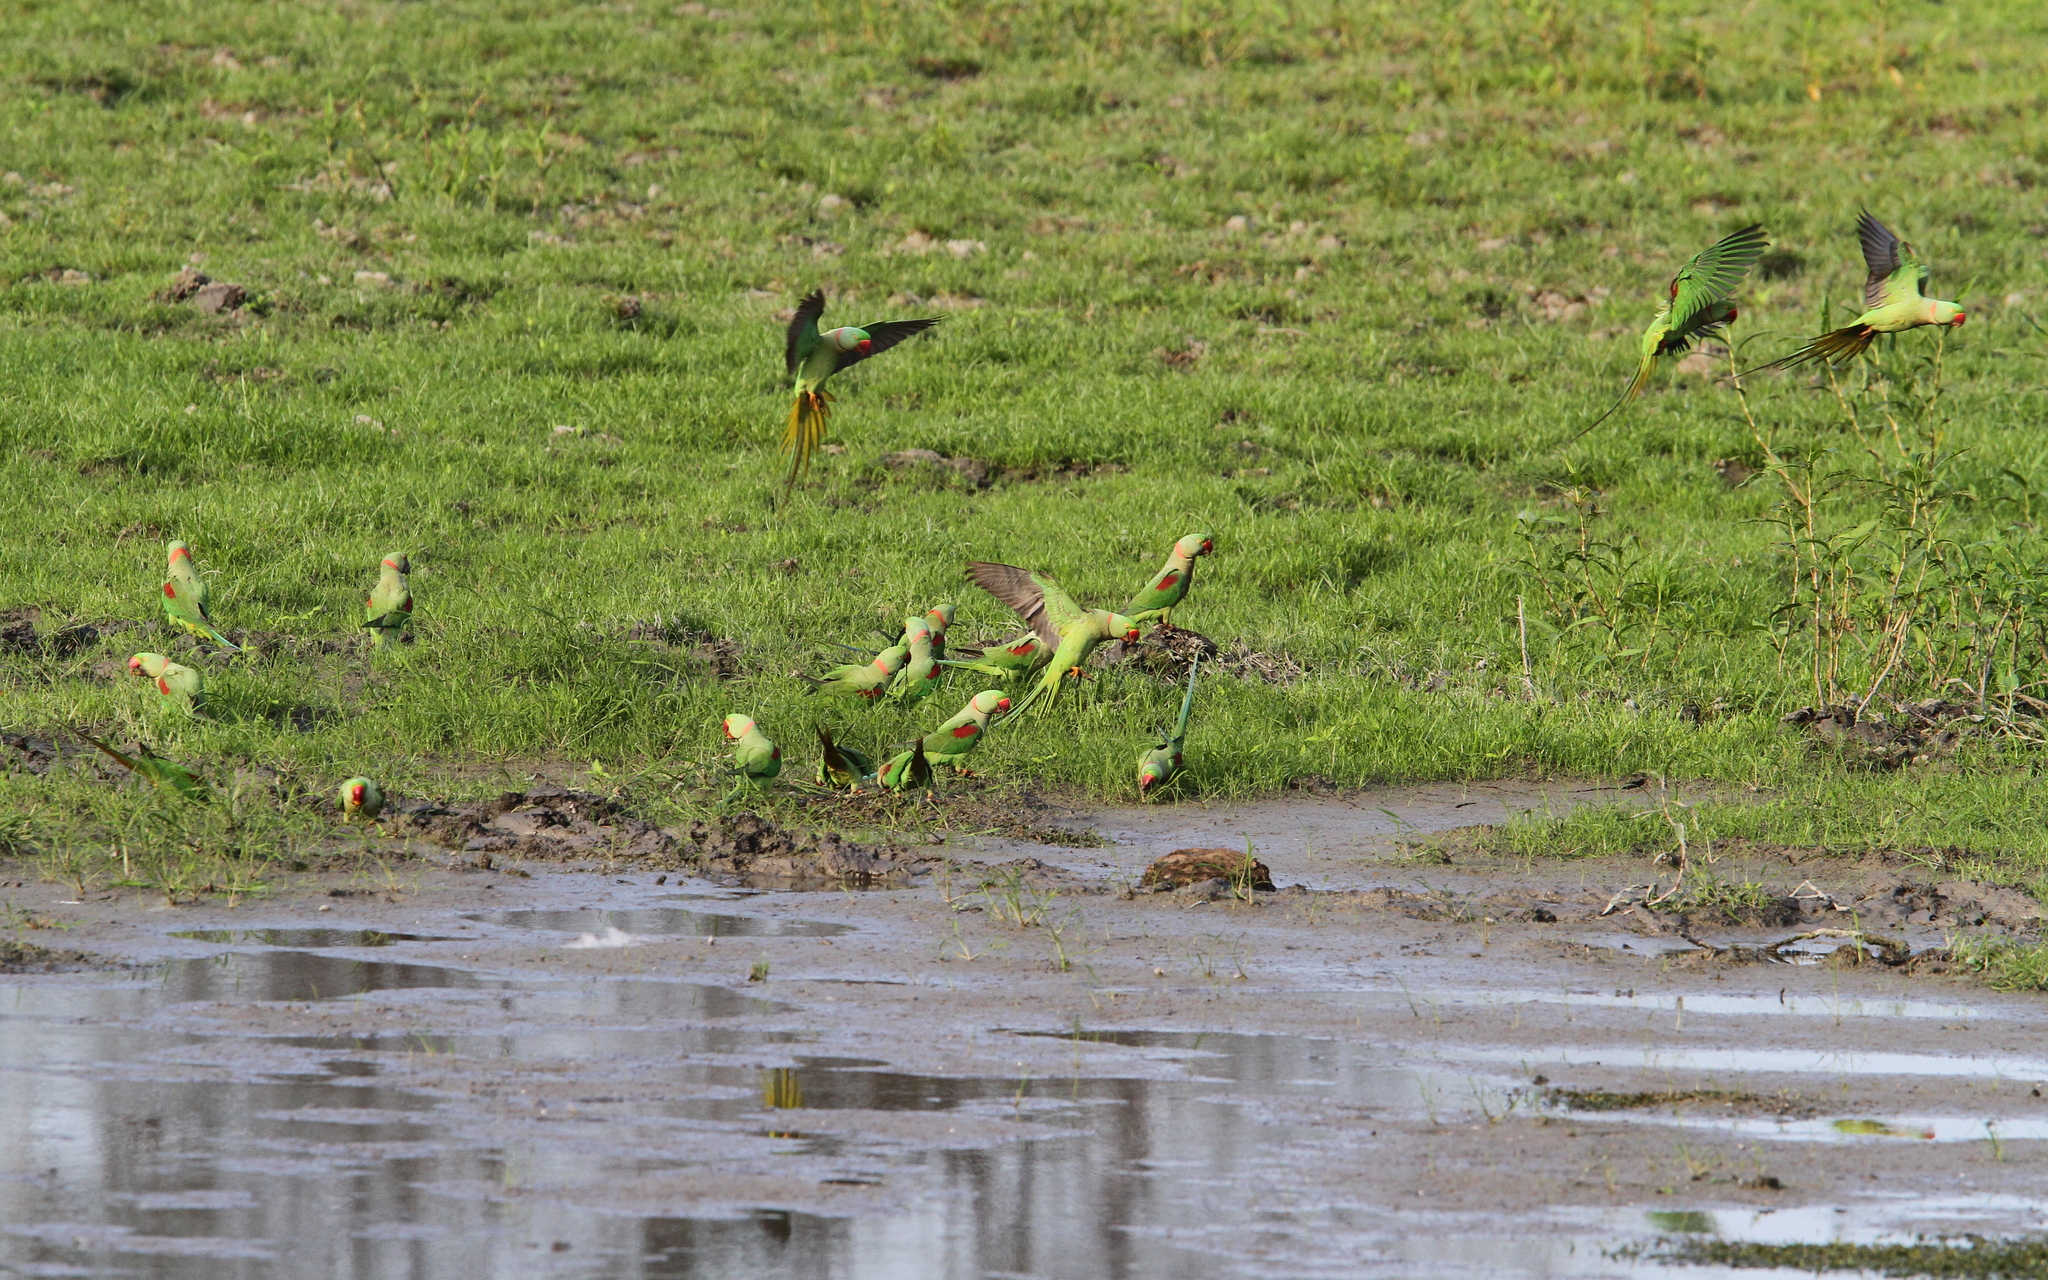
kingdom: Animalia
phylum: Chordata
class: Aves
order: Psittaciformes
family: Psittacidae
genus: Psittacula
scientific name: Psittacula eupatria
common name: Alexandrine parakeet
